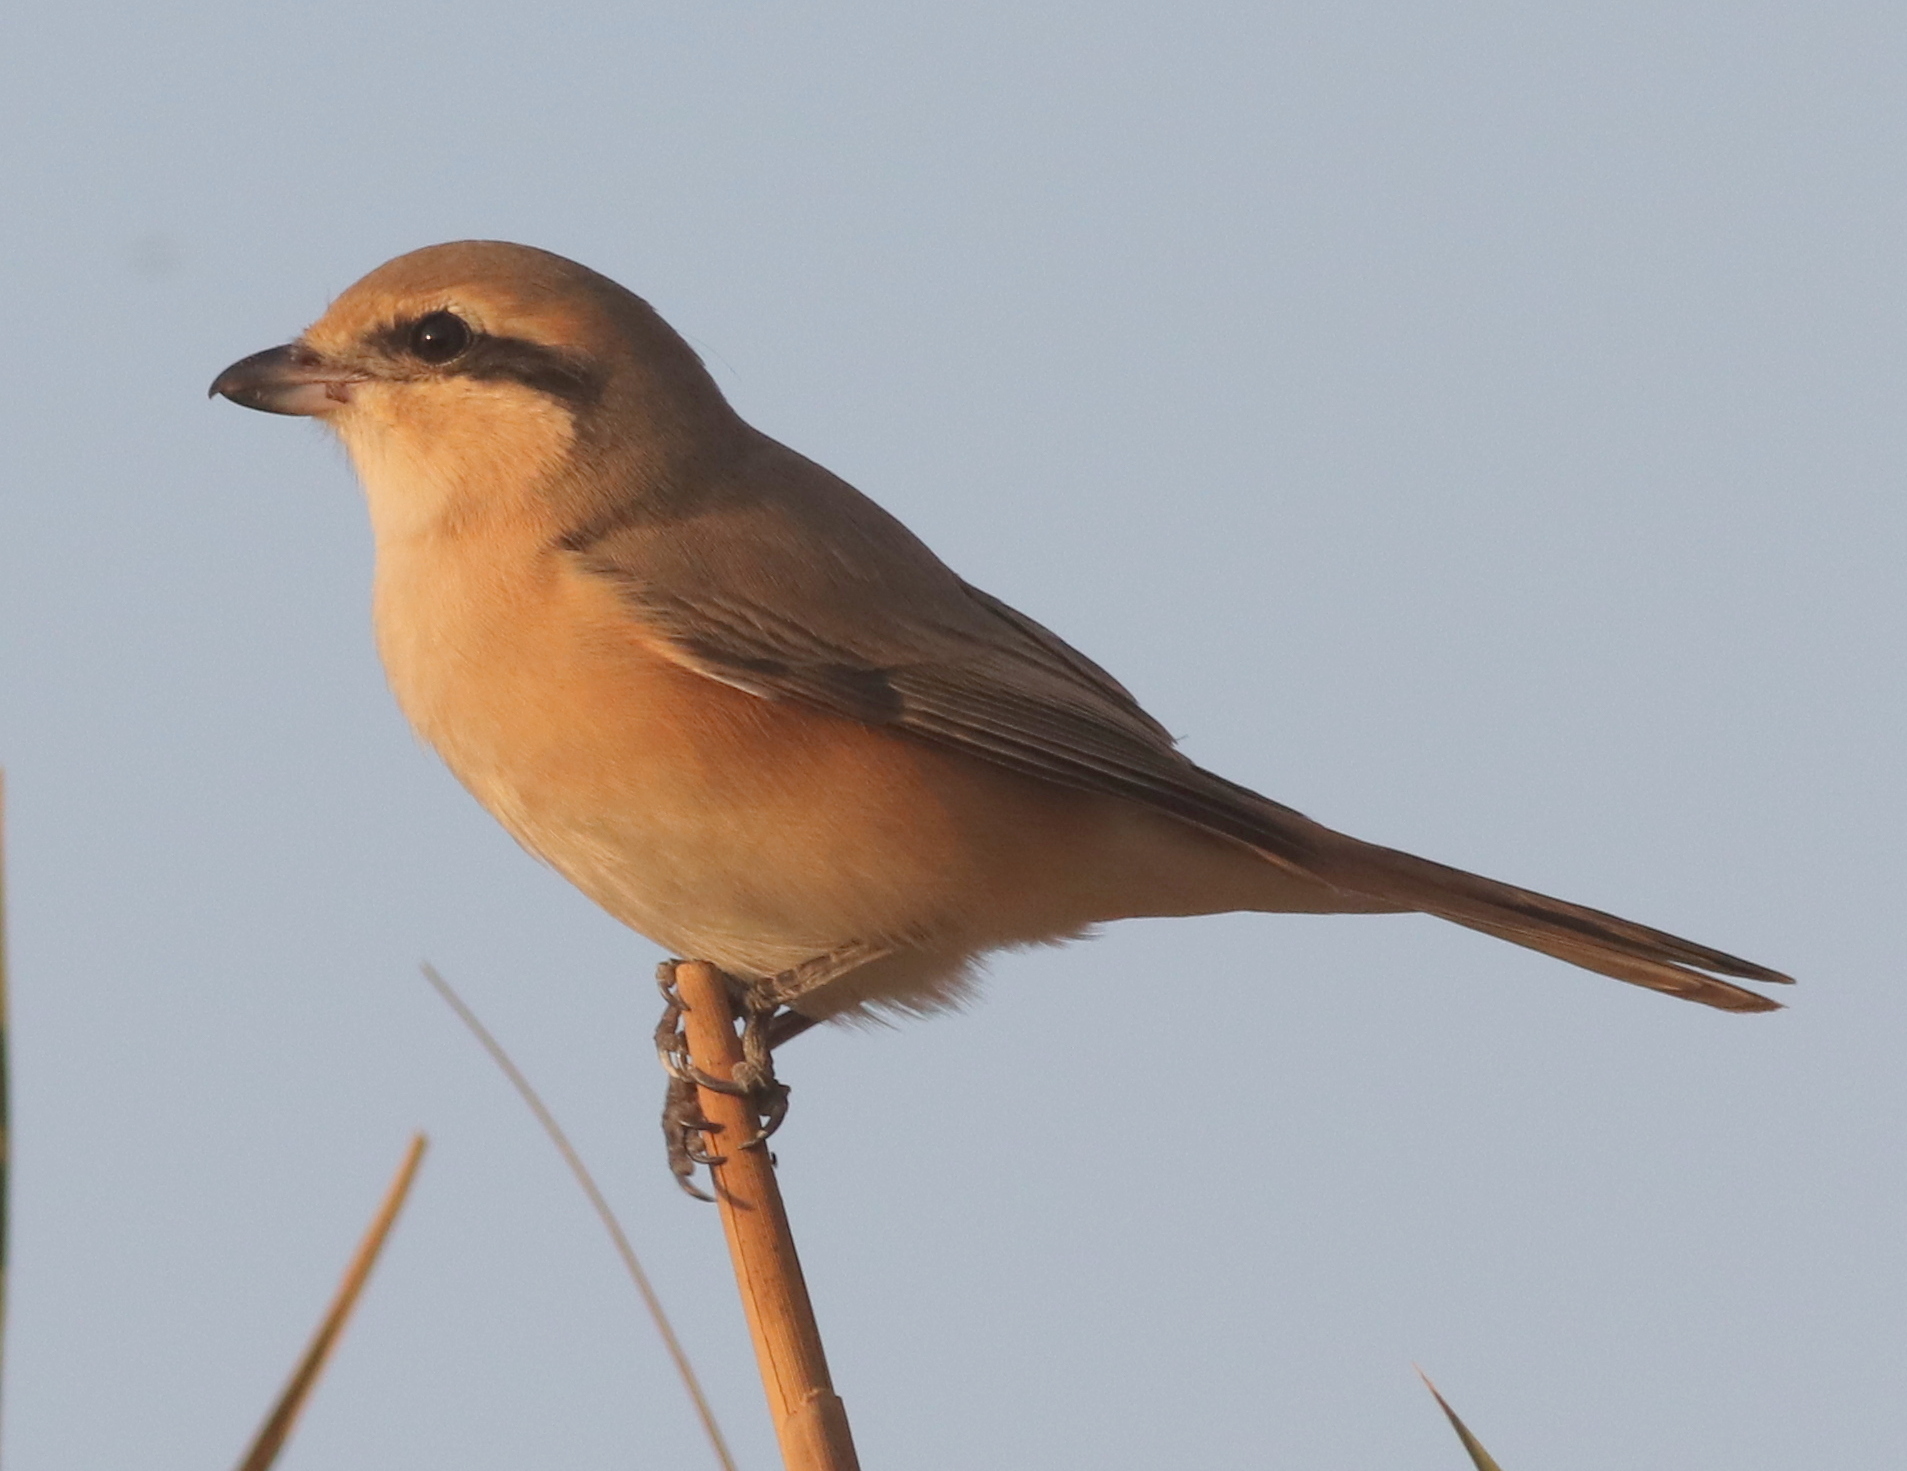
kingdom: Animalia
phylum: Chordata
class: Aves
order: Passeriformes
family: Laniidae
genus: Lanius
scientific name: Lanius isabellinus
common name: Isabelline shrike
